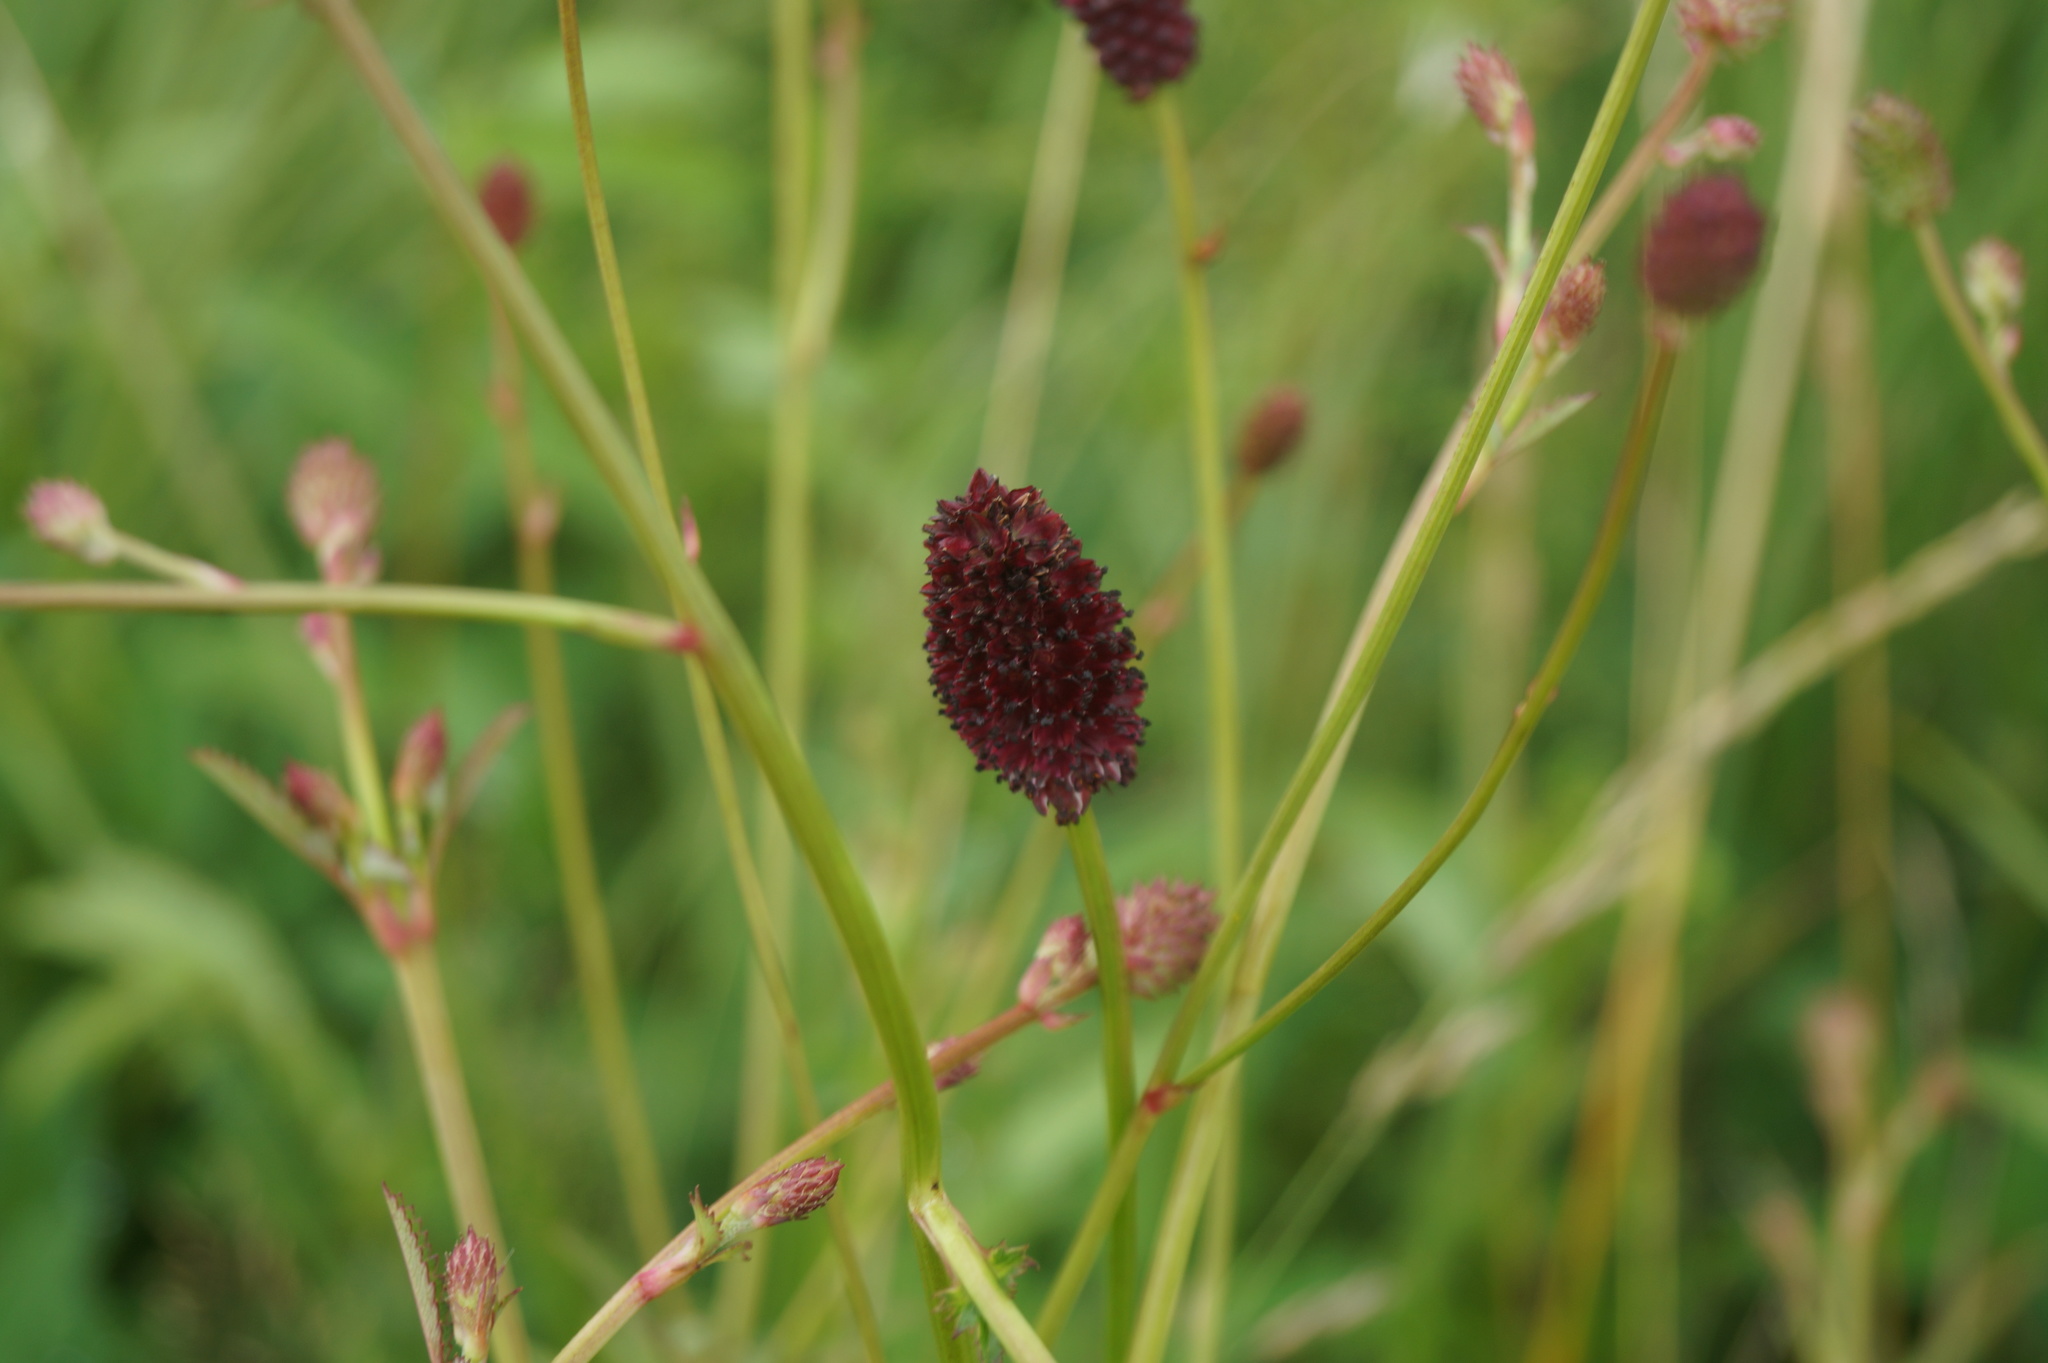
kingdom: Plantae
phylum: Tracheophyta
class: Magnoliopsida
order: Rosales
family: Rosaceae
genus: Sanguisorba
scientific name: Sanguisorba officinalis
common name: Great burnet
